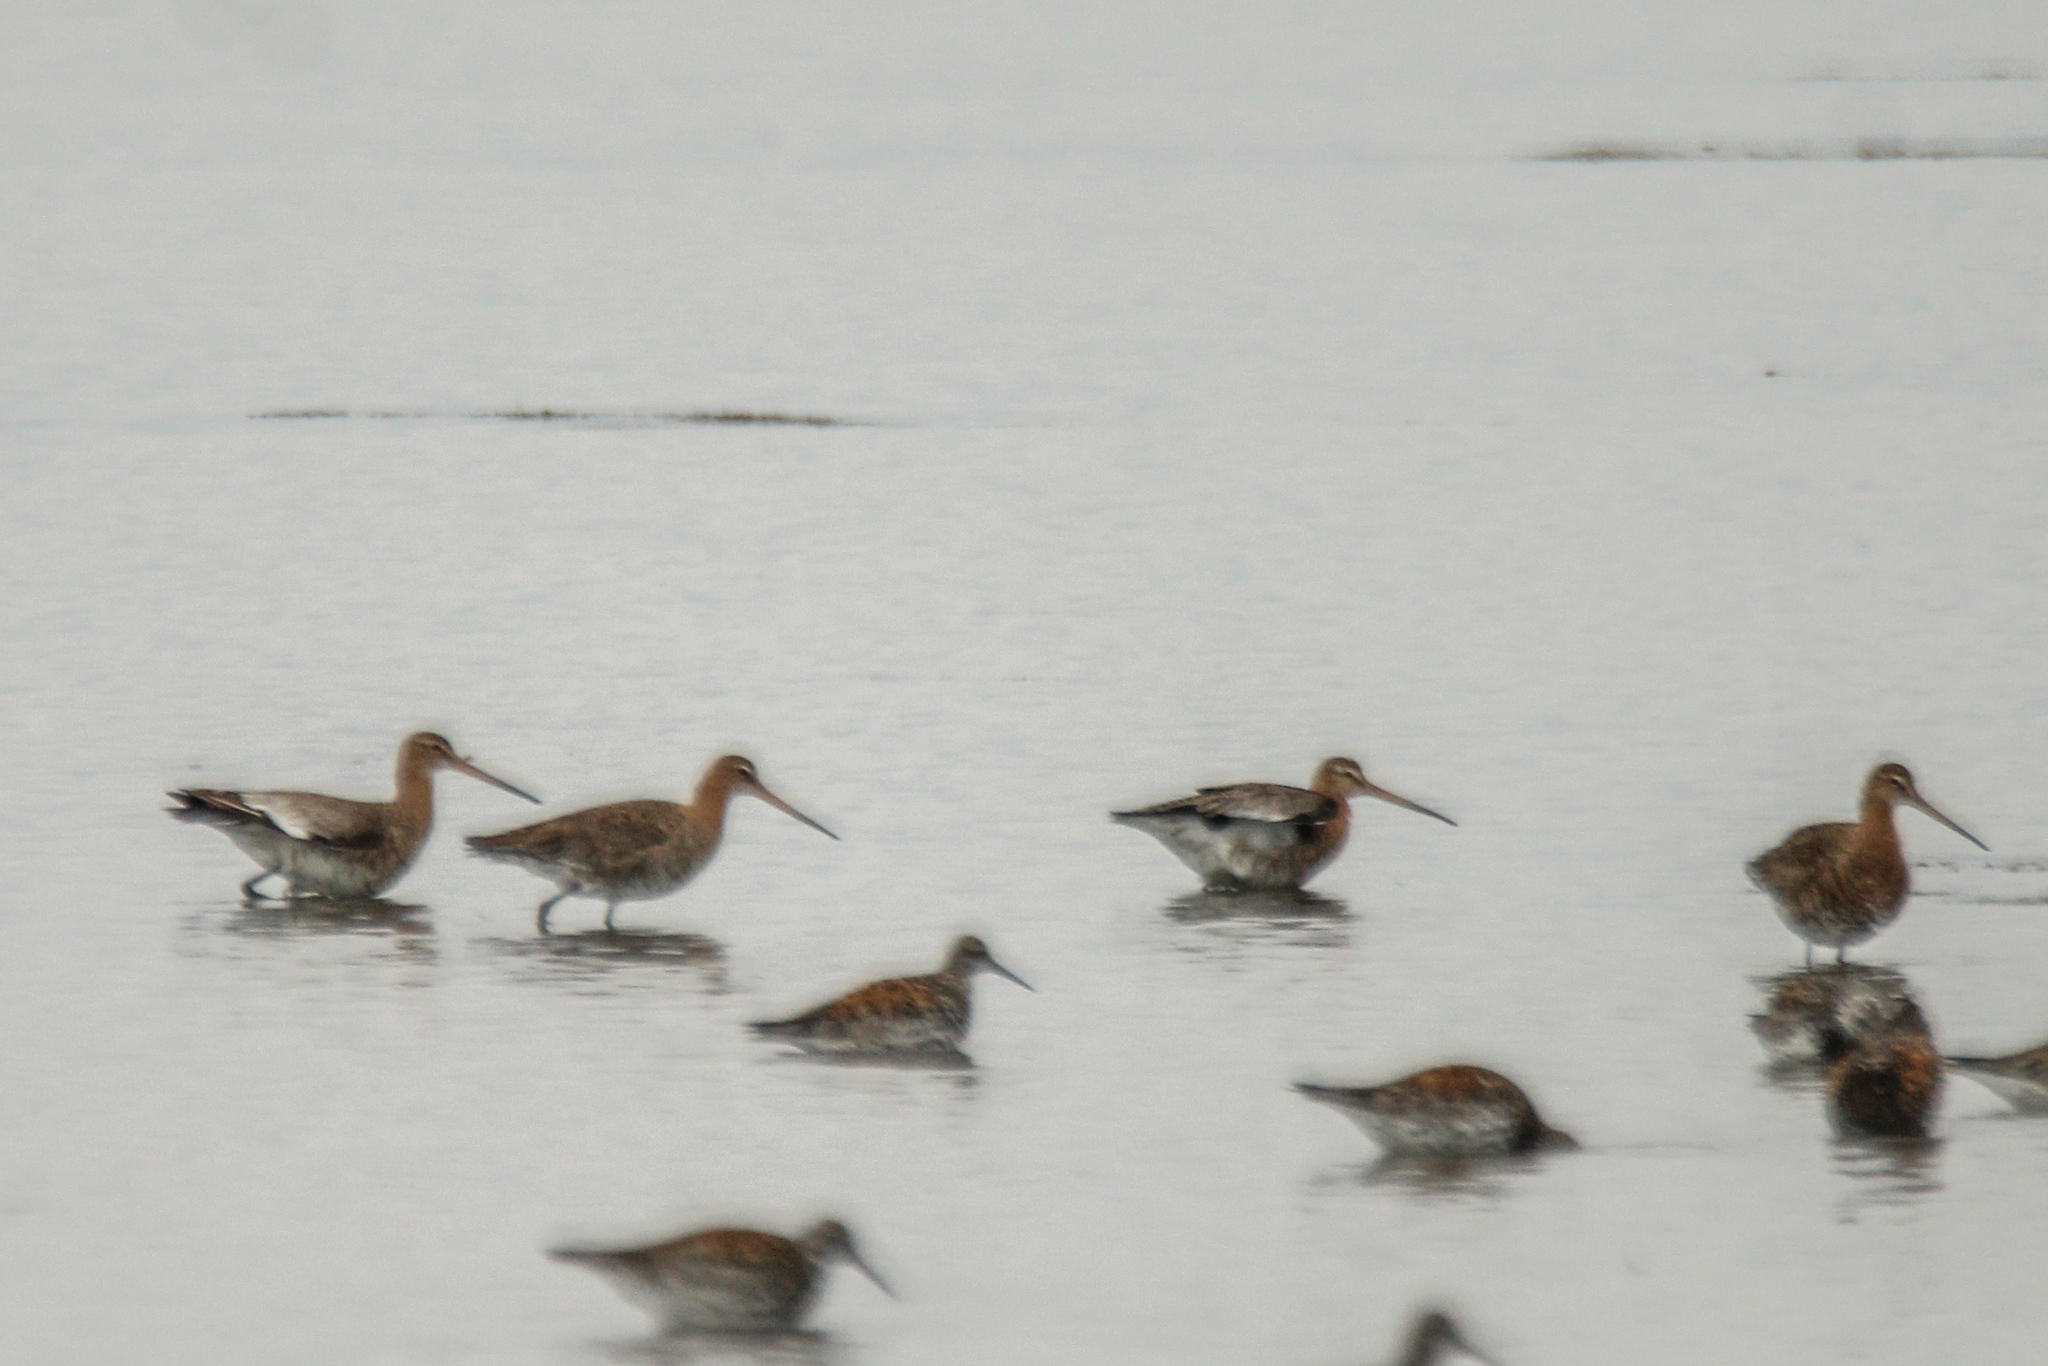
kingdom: Animalia
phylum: Chordata
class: Aves
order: Charadriiformes
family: Scolopacidae
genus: Limosa
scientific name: Limosa limosa
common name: Black-tailed godwit
